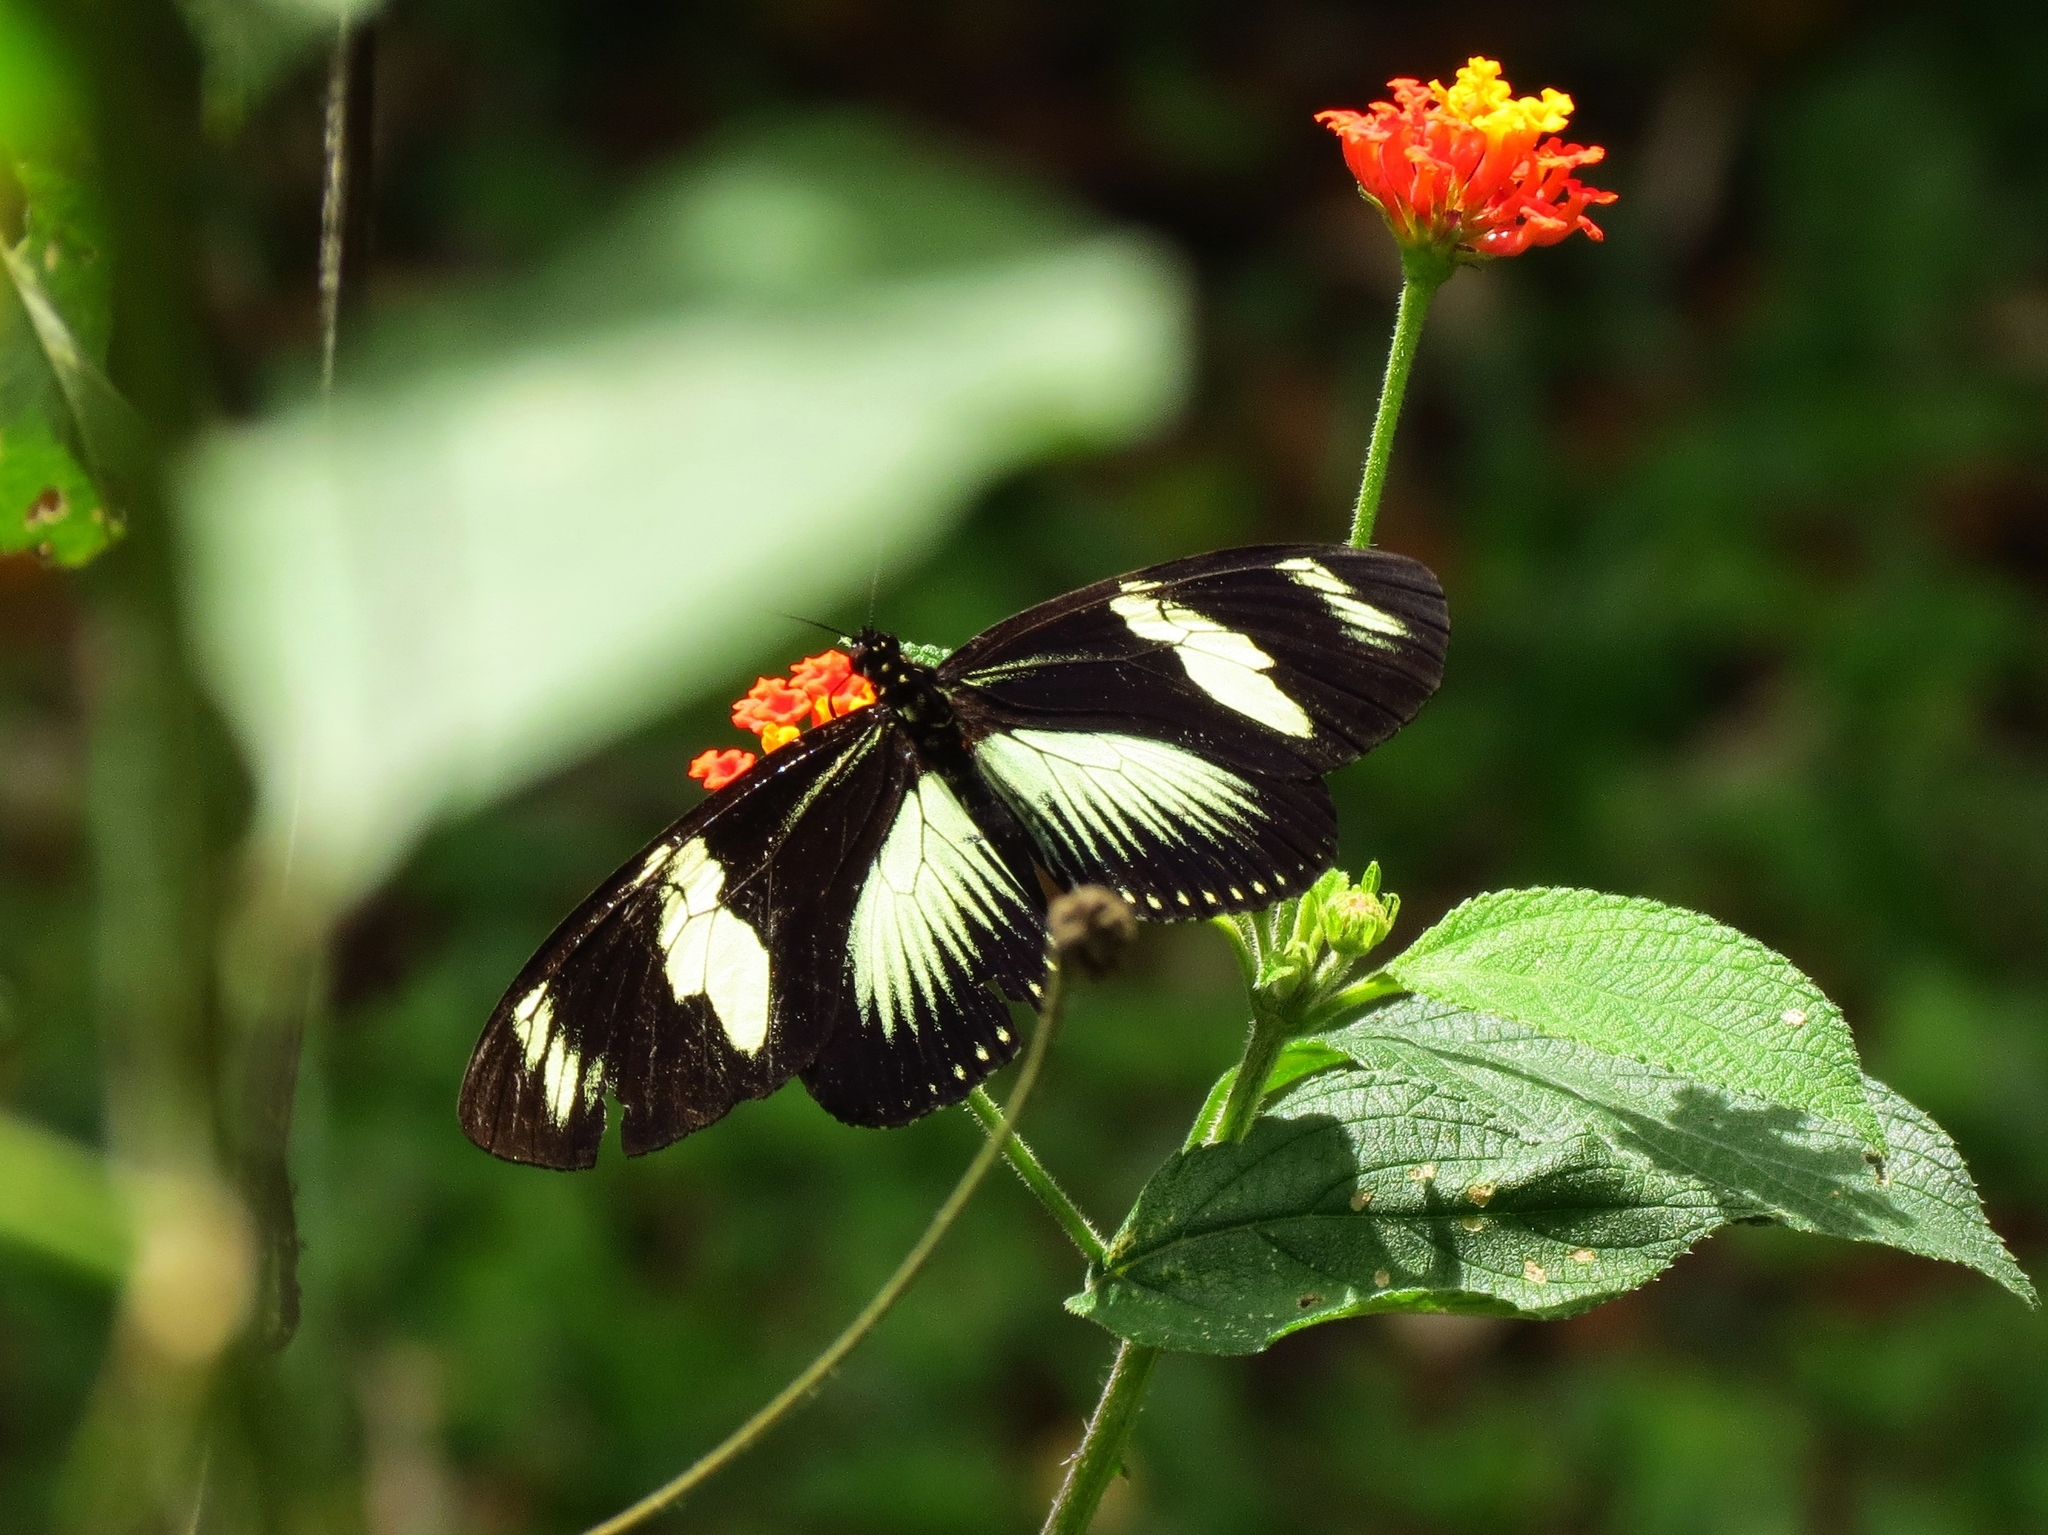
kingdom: Animalia
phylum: Arthropoda
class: Insecta
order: Lepidoptera
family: Nymphalidae
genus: Heliconius
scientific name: Heliconius doris
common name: Doris longwing
